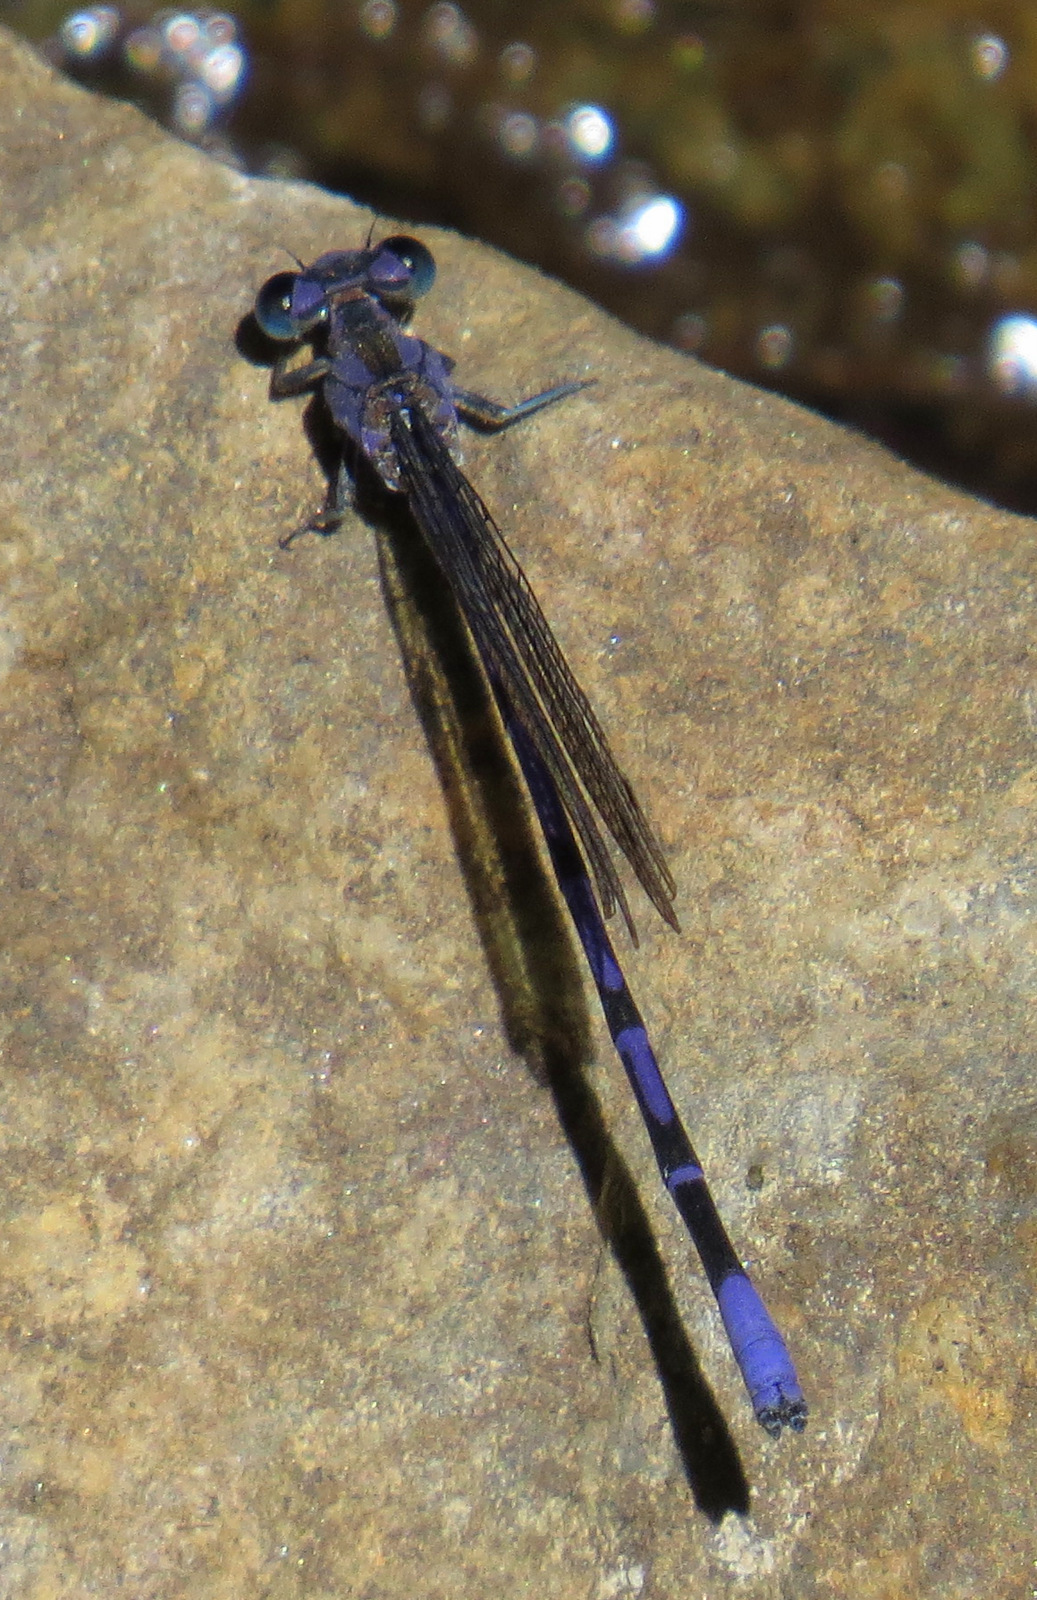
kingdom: Animalia
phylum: Arthropoda
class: Insecta
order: Odonata
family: Coenagrionidae
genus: Argia
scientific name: Argia funebris
